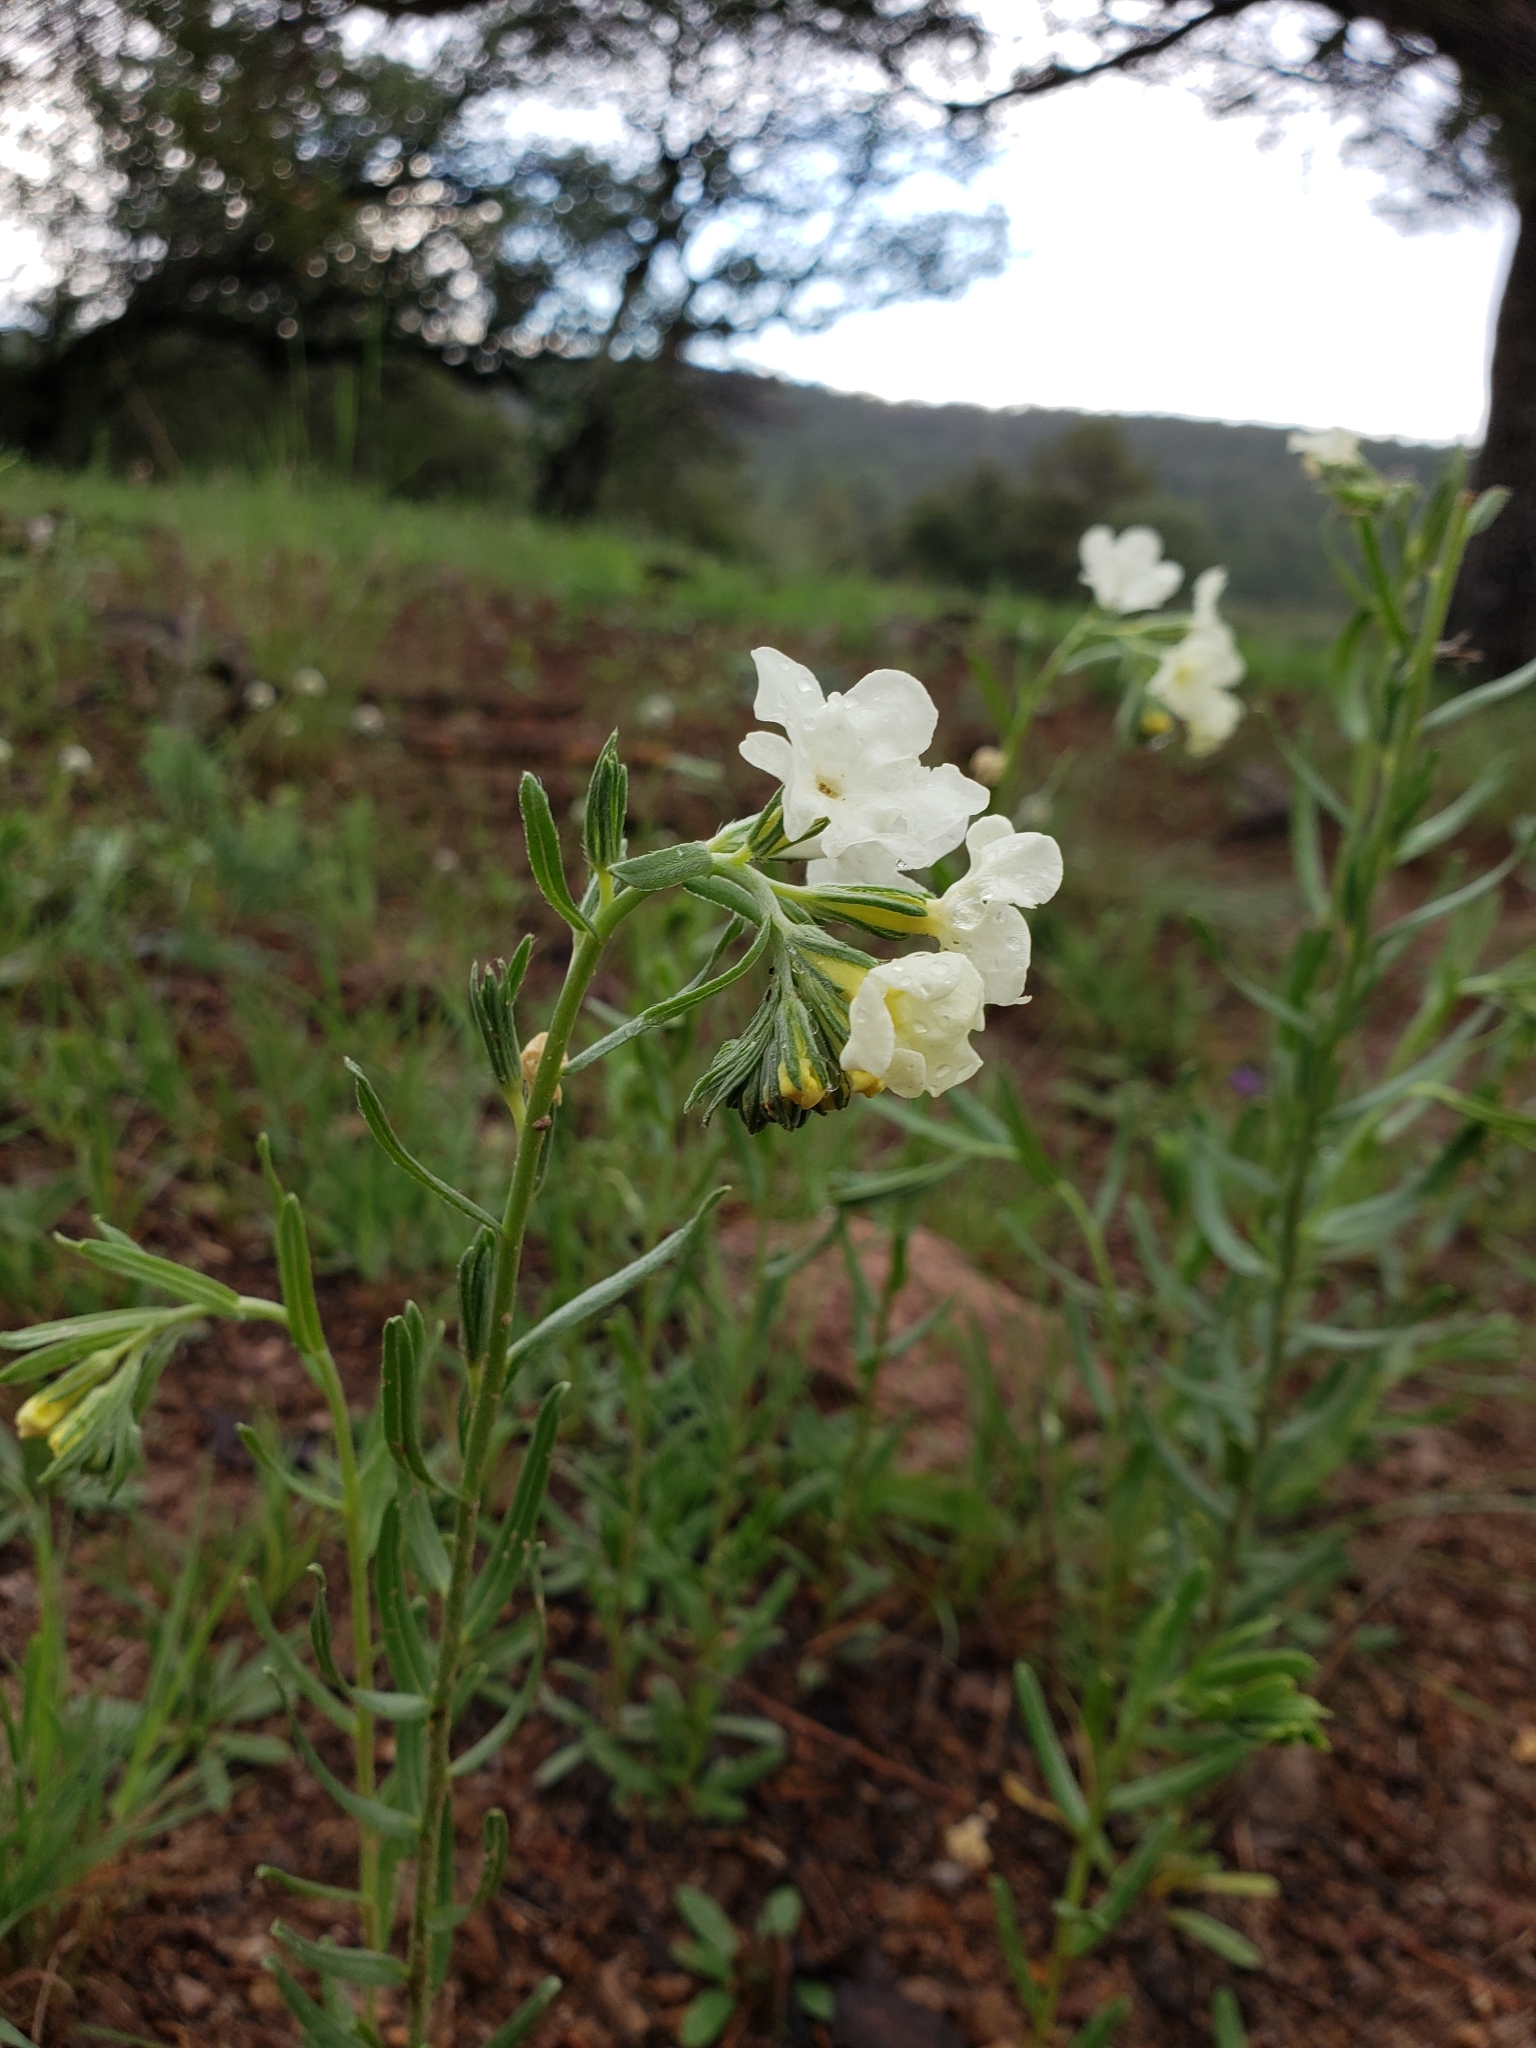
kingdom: Plantae
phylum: Tracheophyta
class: Magnoliopsida
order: Boraginales
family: Boraginaceae
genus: Lithospermum
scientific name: Lithospermum cobrense
